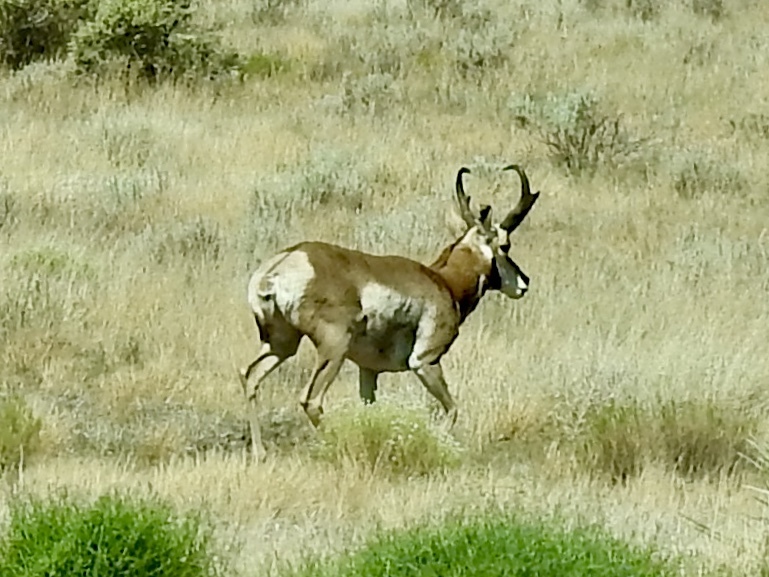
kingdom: Animalia
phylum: Chordata
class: Mammalia
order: Artiodactyla
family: Antilocapridae
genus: Antilocapra
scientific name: Antilocapra americana
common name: Pronghorn
